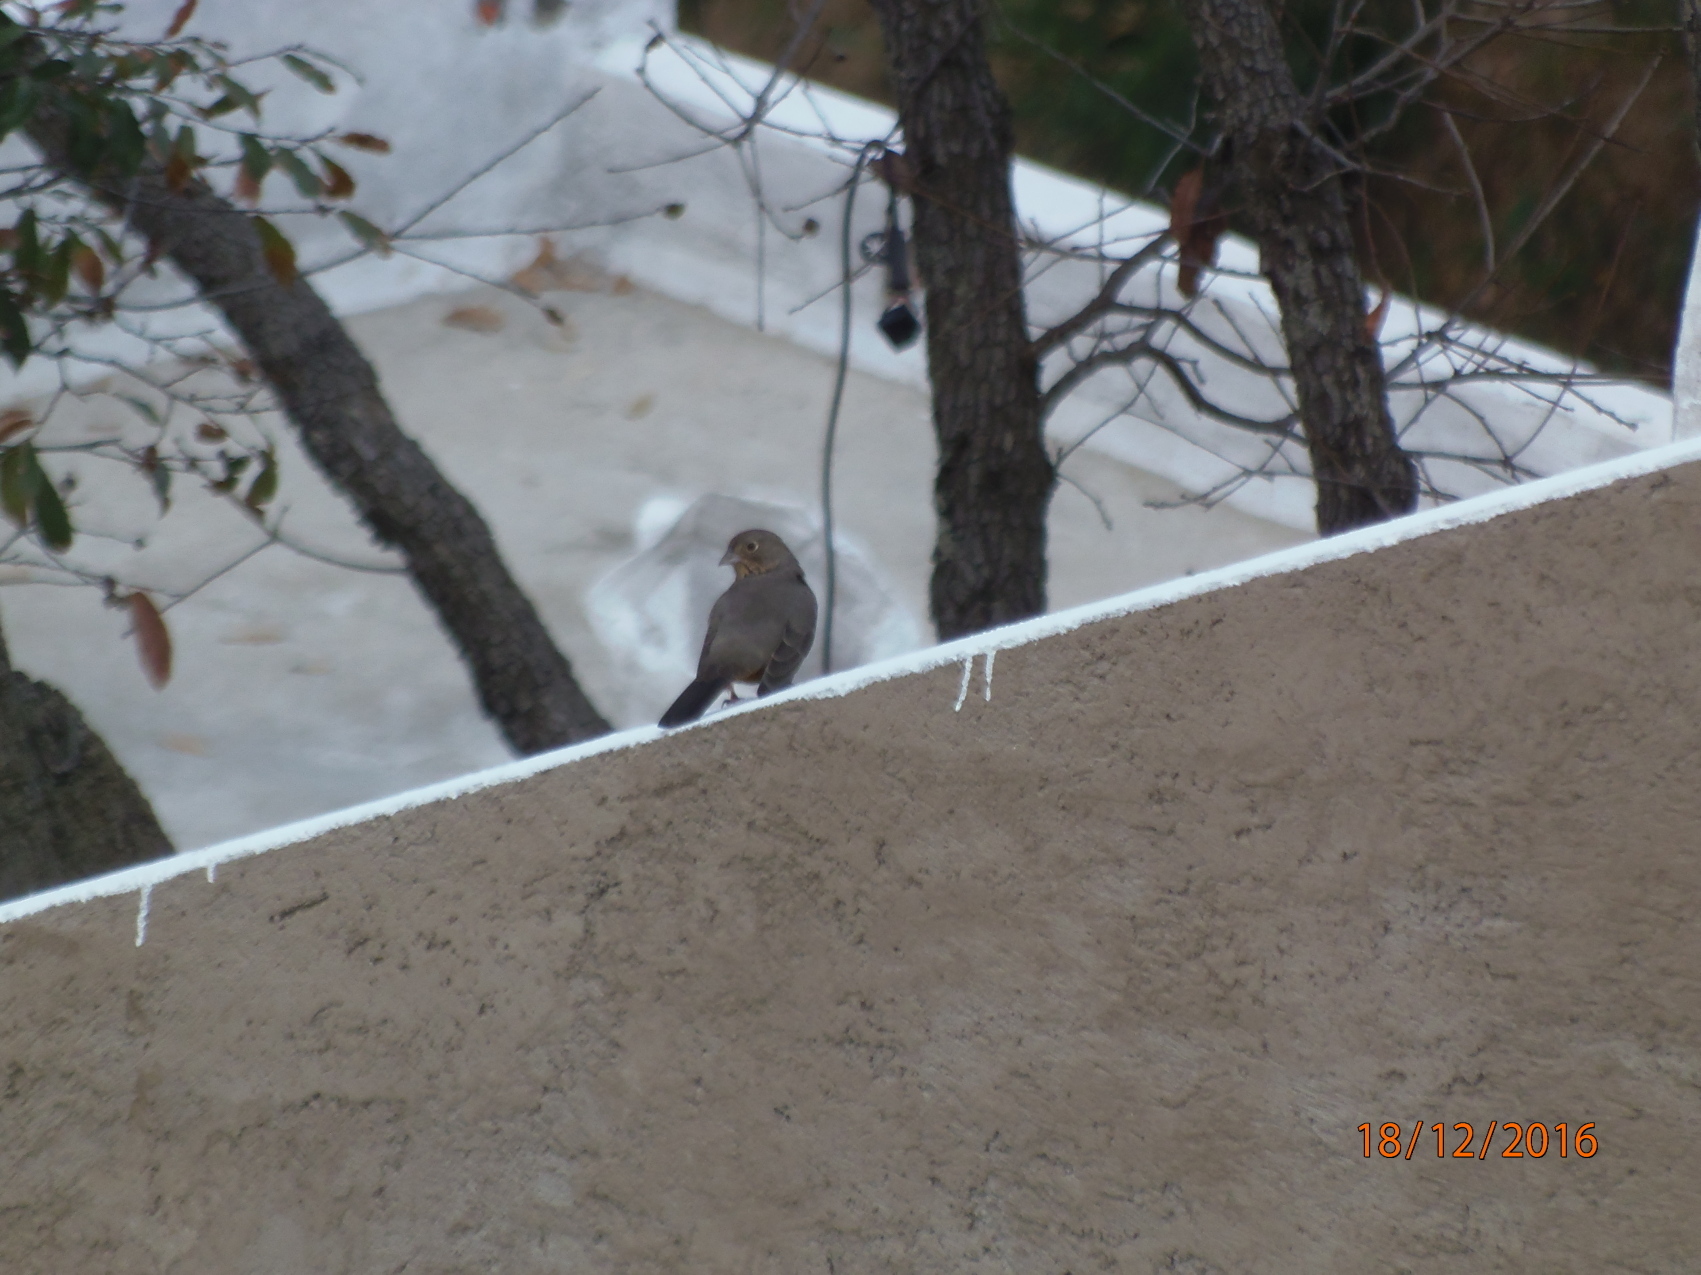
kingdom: Animalia
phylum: Chordata
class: Aves
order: Passeriformes
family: Passerellidae
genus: Melozone
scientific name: Melozone fusca
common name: Canyon towhee
